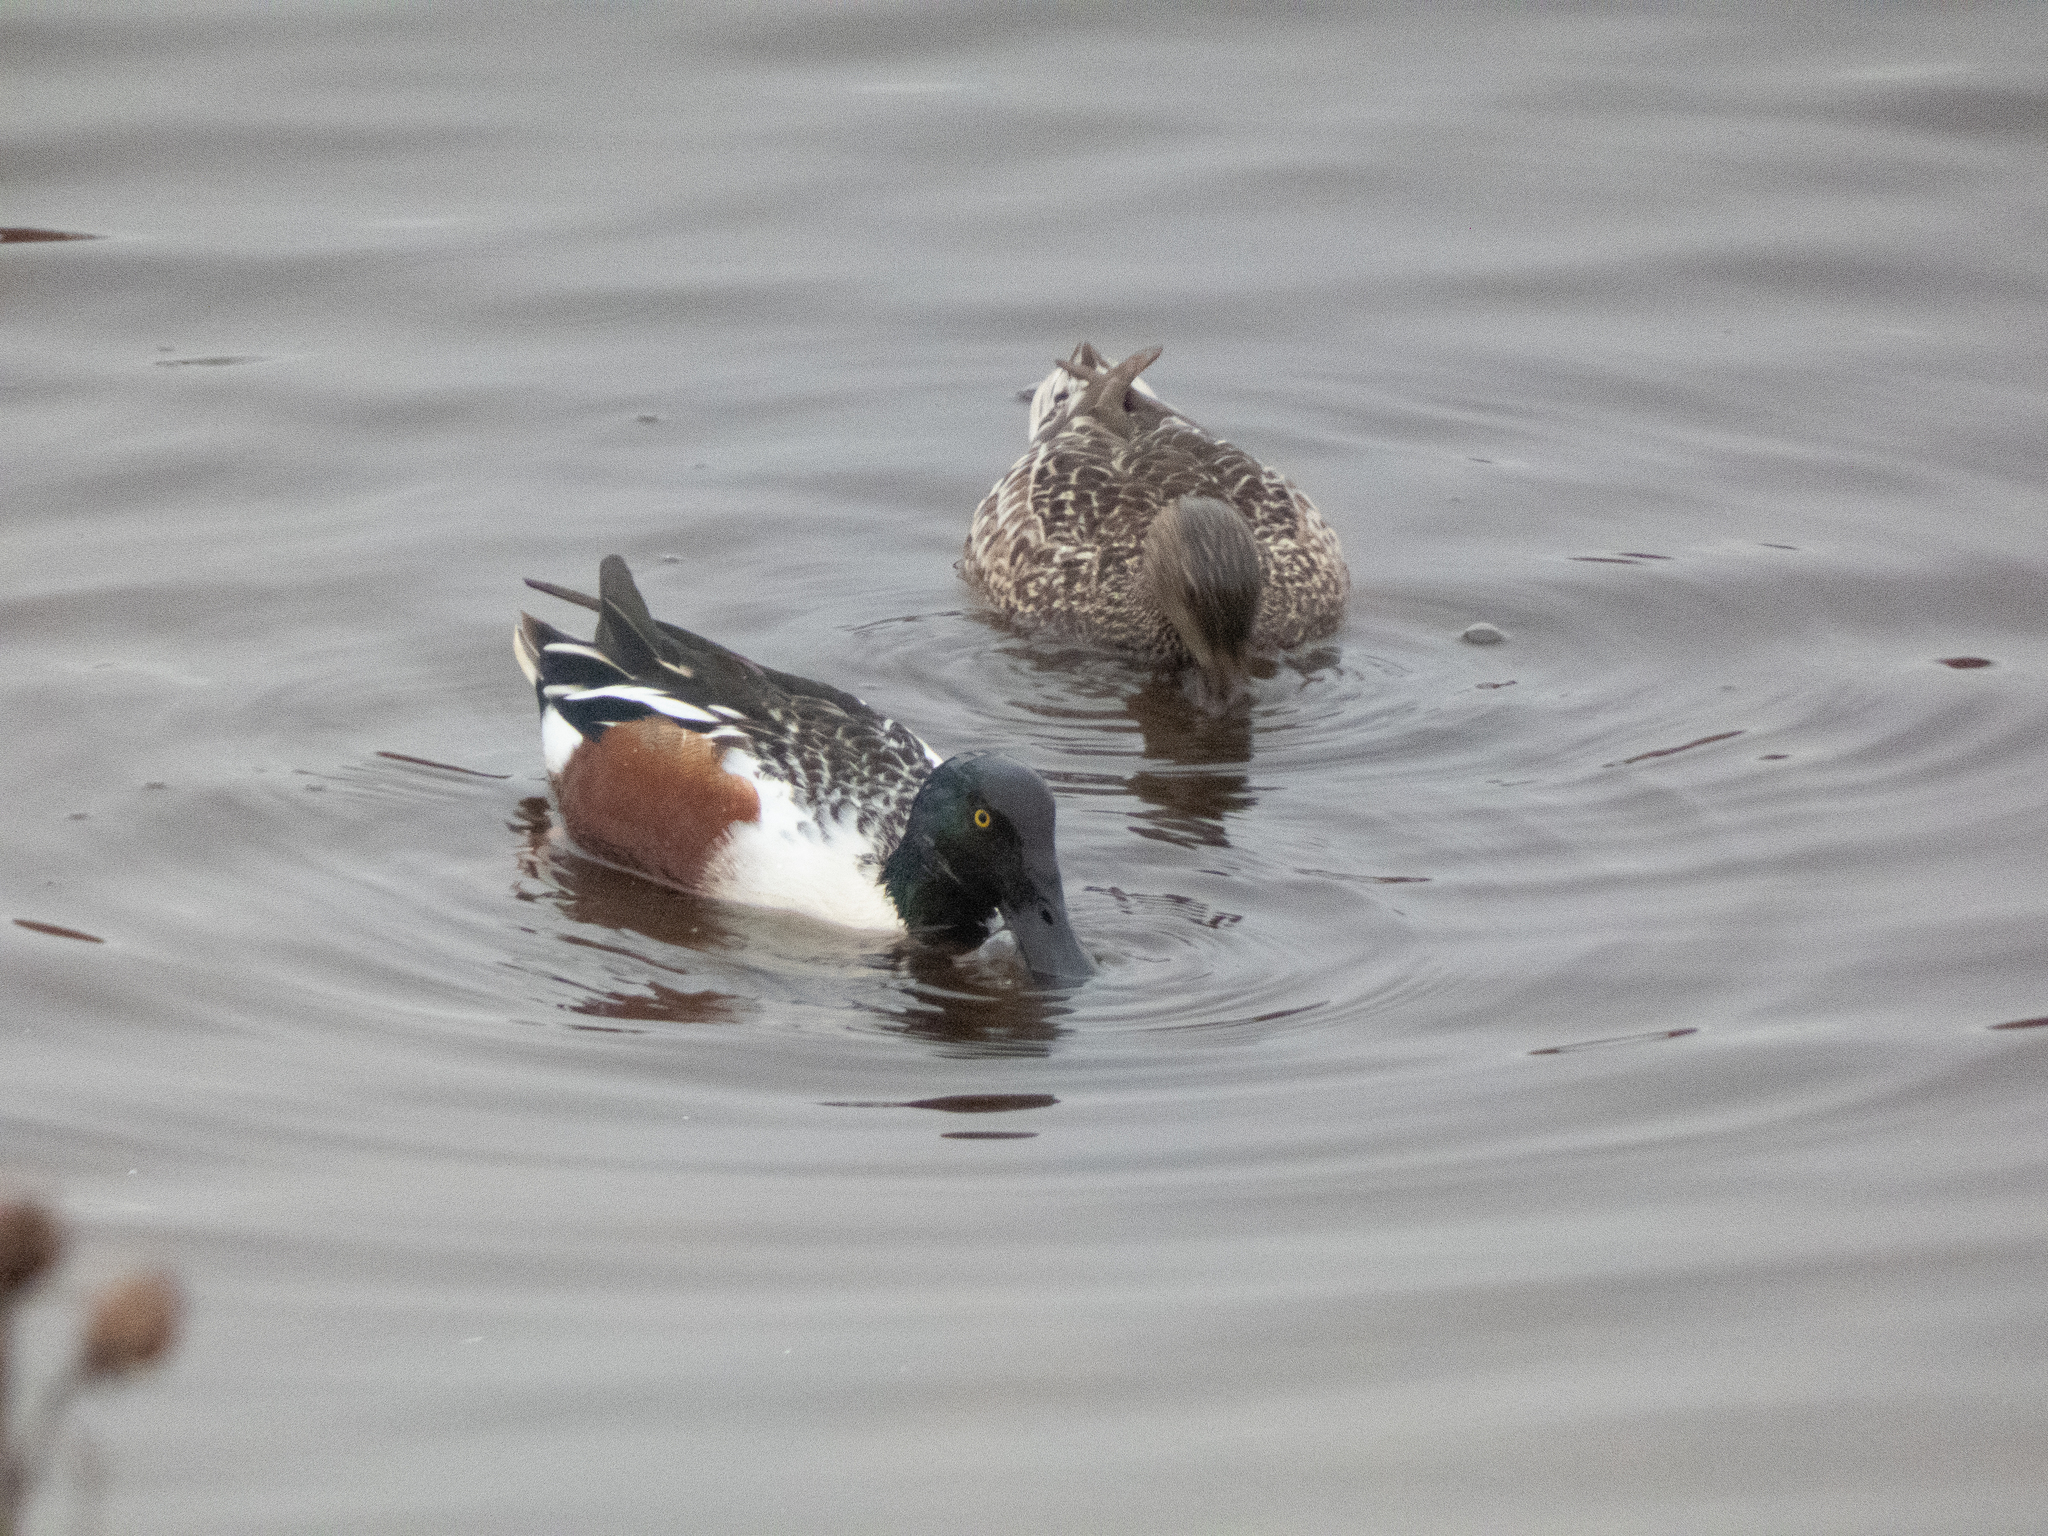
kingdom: Animalia
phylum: Chordata
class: Aves
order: Anseriformes
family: Anatidae
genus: Spatula
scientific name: Spatula clypeata
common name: Northern shoveler
